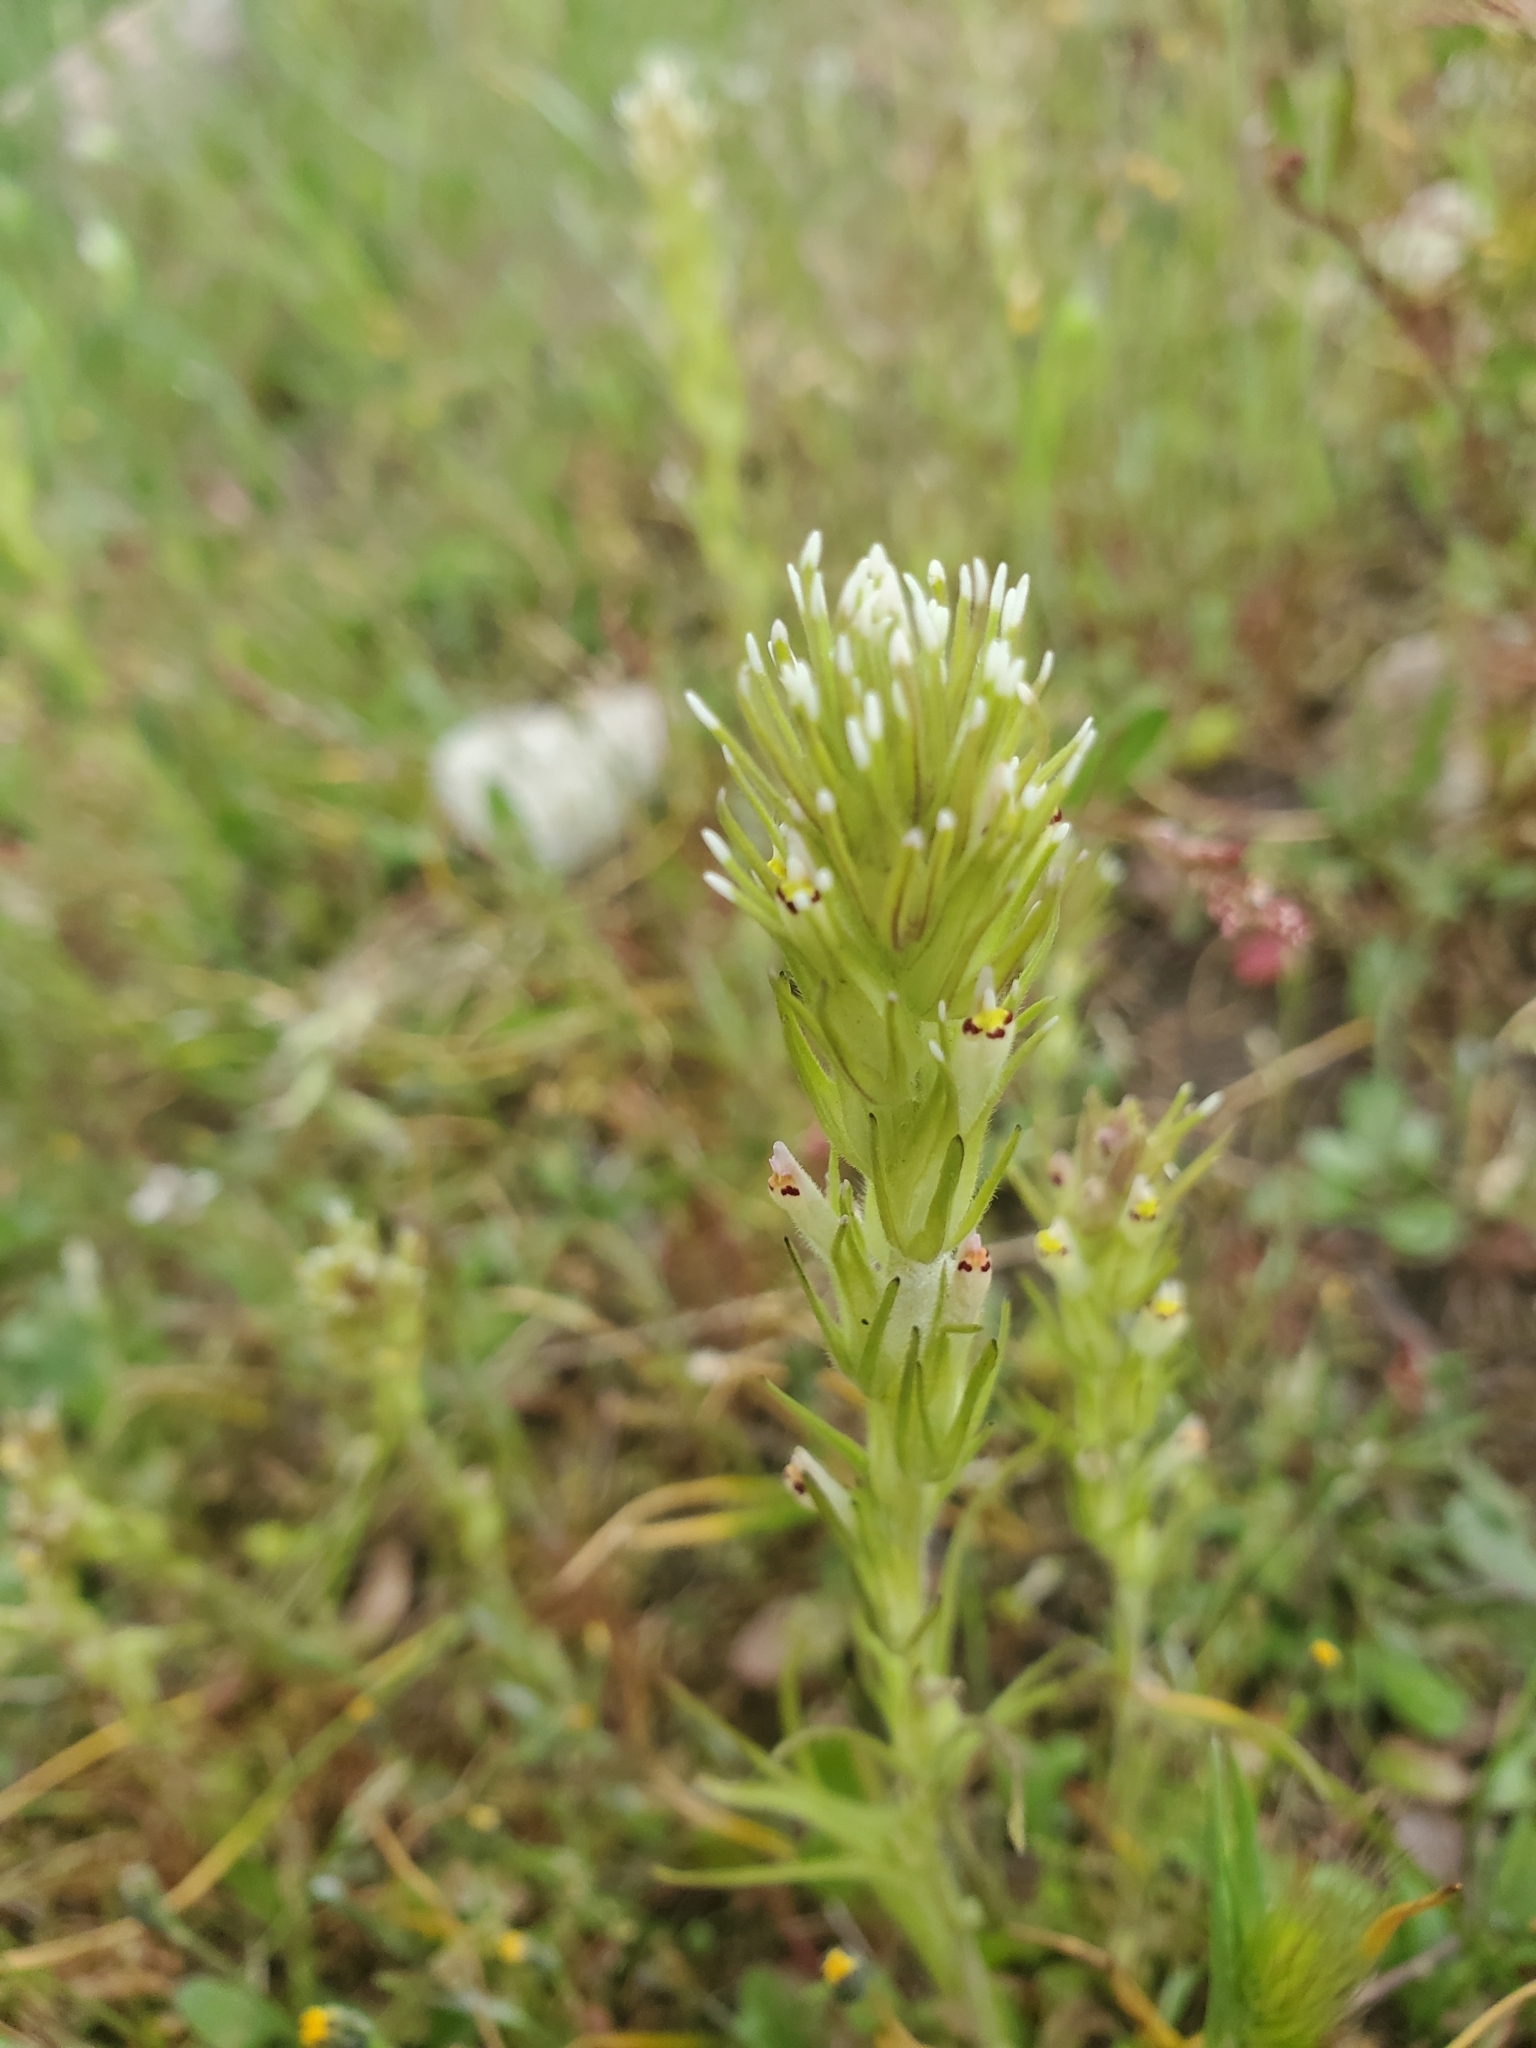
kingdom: Plantae
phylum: Tracheophyta
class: Magnoliopsida
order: Lamiales
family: Orobanchaceae
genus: Castilleja
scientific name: Castilleja attenuata
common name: Valley tassels
